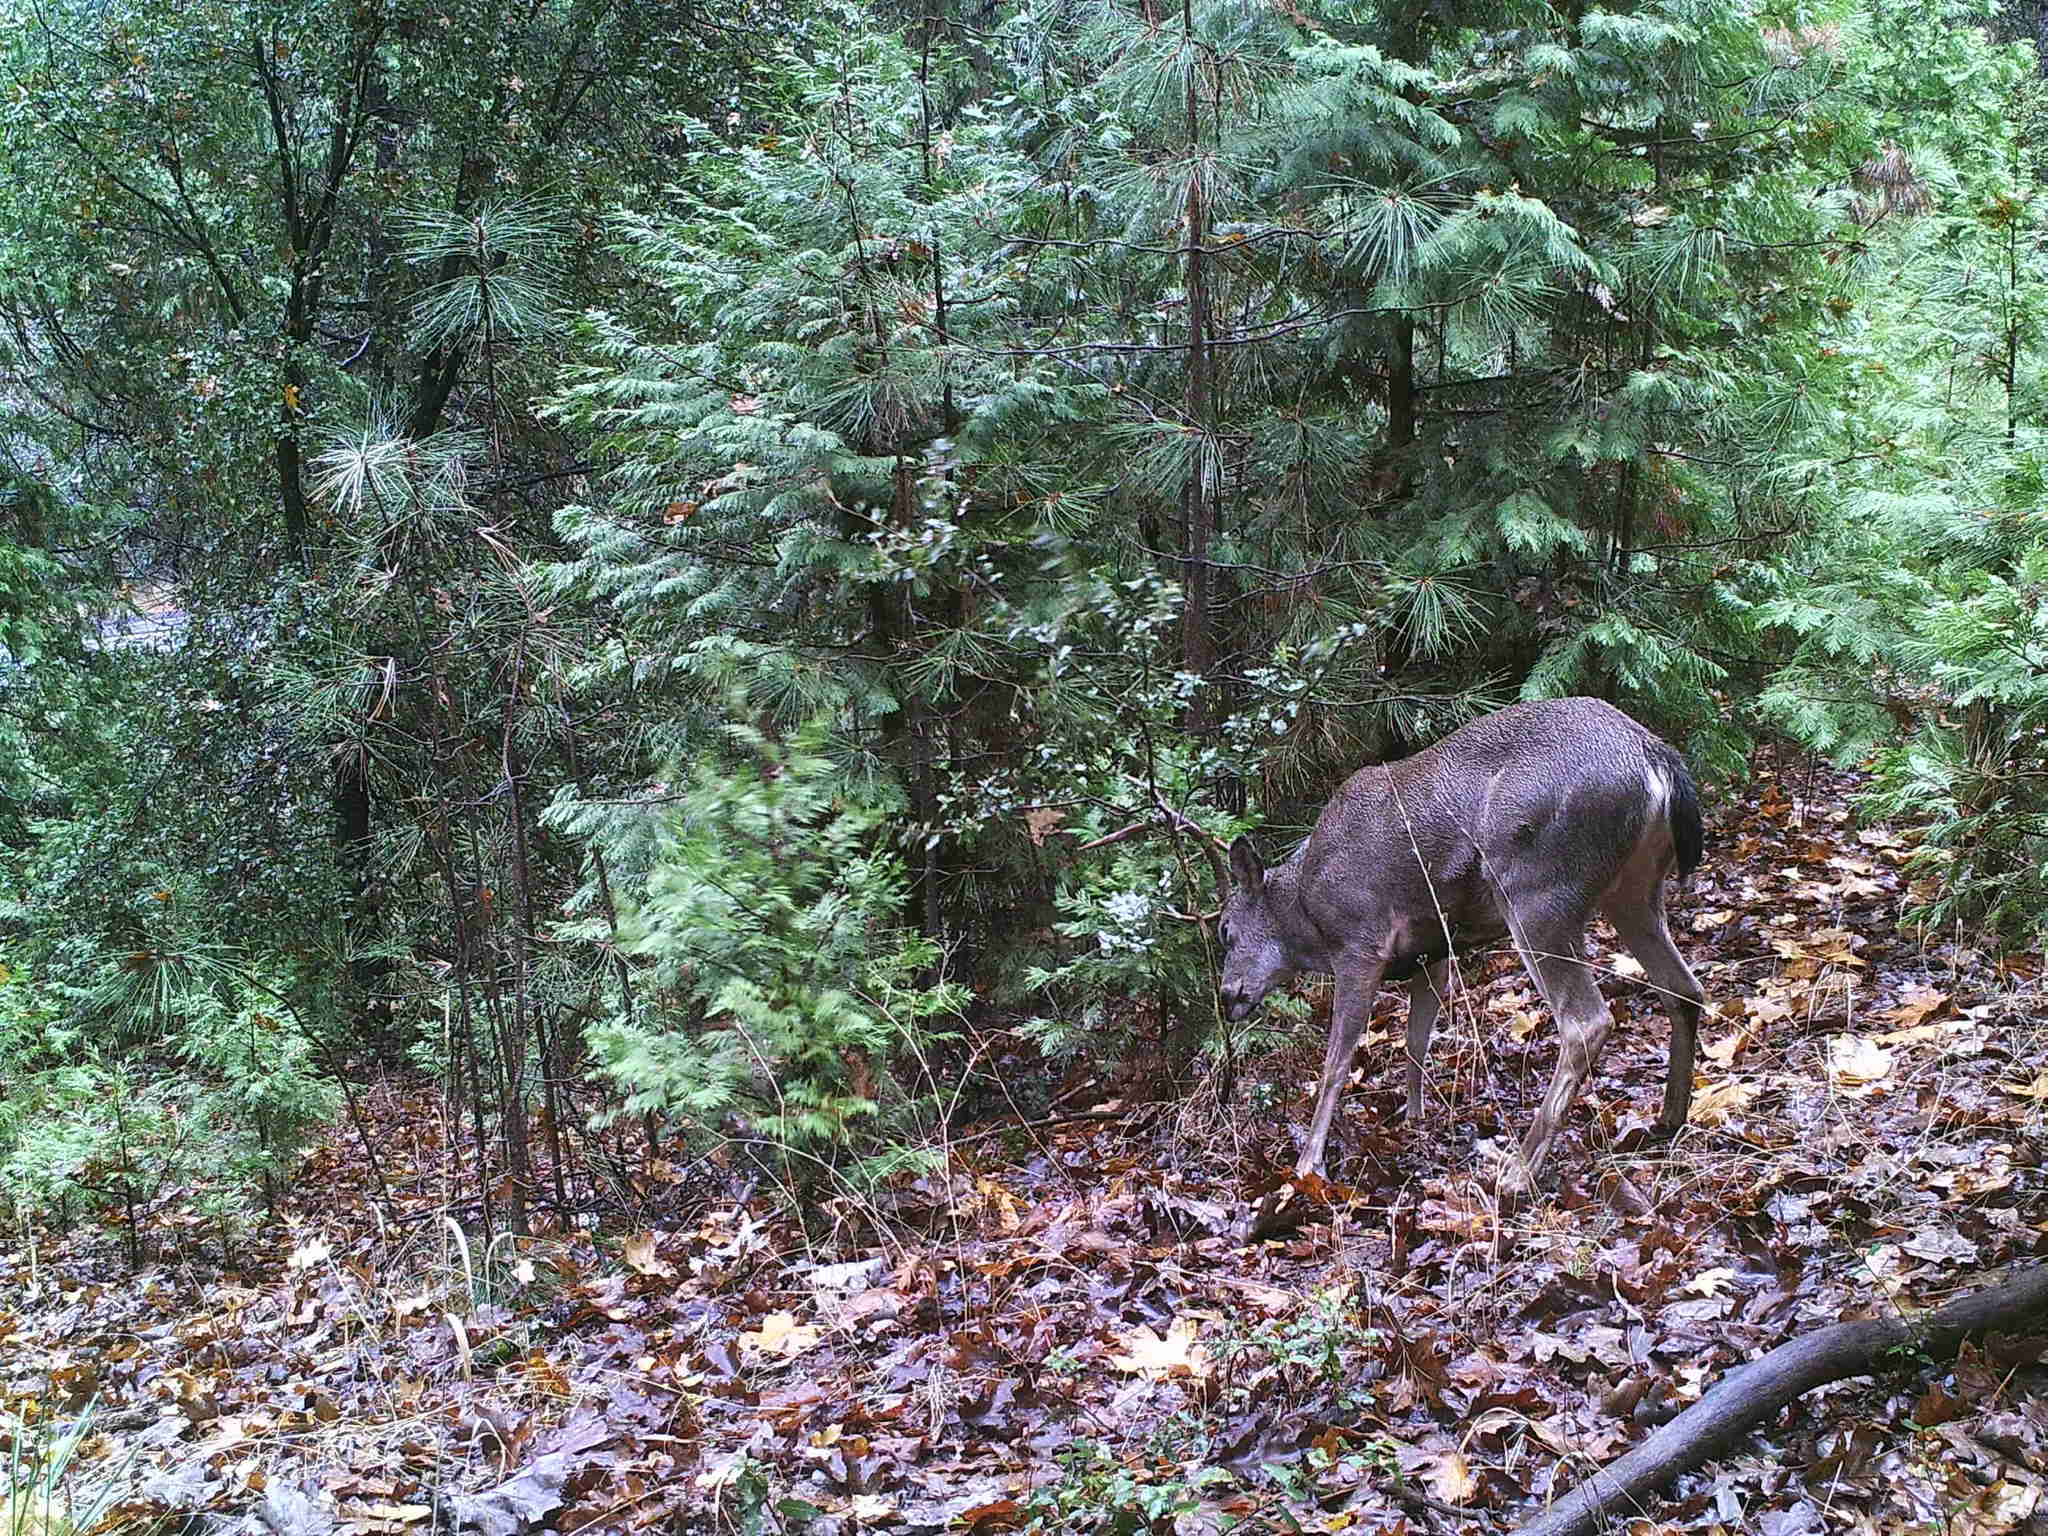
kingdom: Animalia
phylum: Chordata
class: Mammalia
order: Artiodactyla
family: Cervidae
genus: Odocoileus
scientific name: Odocoileus hemionus
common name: Mule deer
